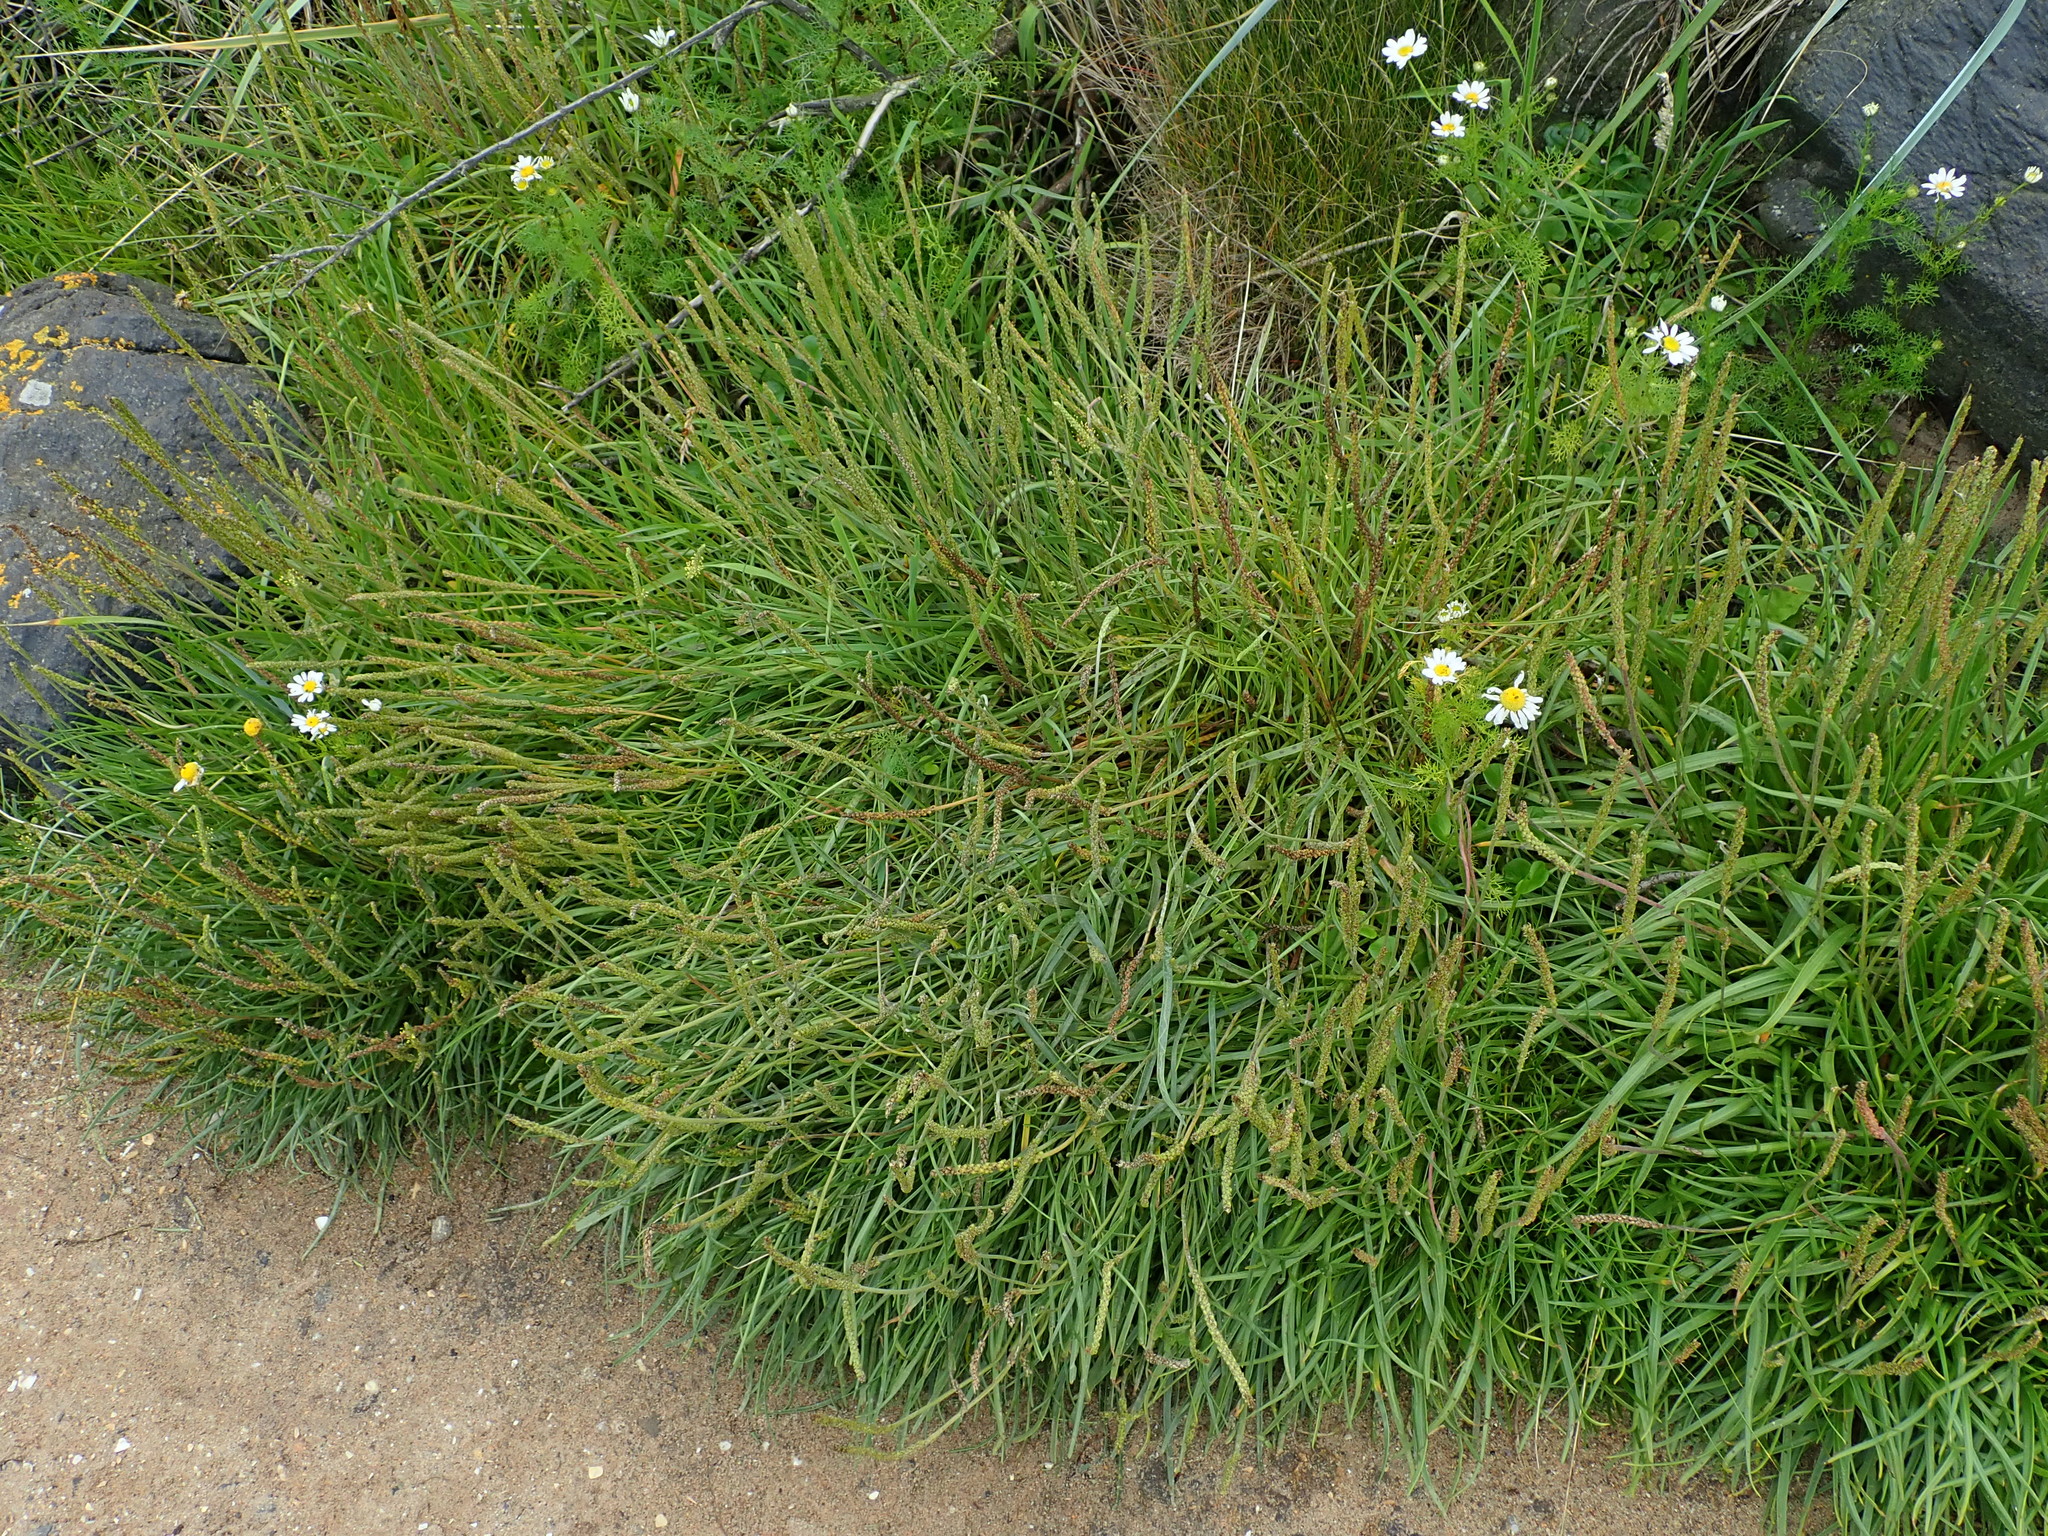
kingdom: Plantae
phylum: Tracheophyta
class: Magnoliopsida
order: Lamiales
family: Plantaginaceae
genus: Plantago
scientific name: Plantago maritima
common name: Sea plantain
